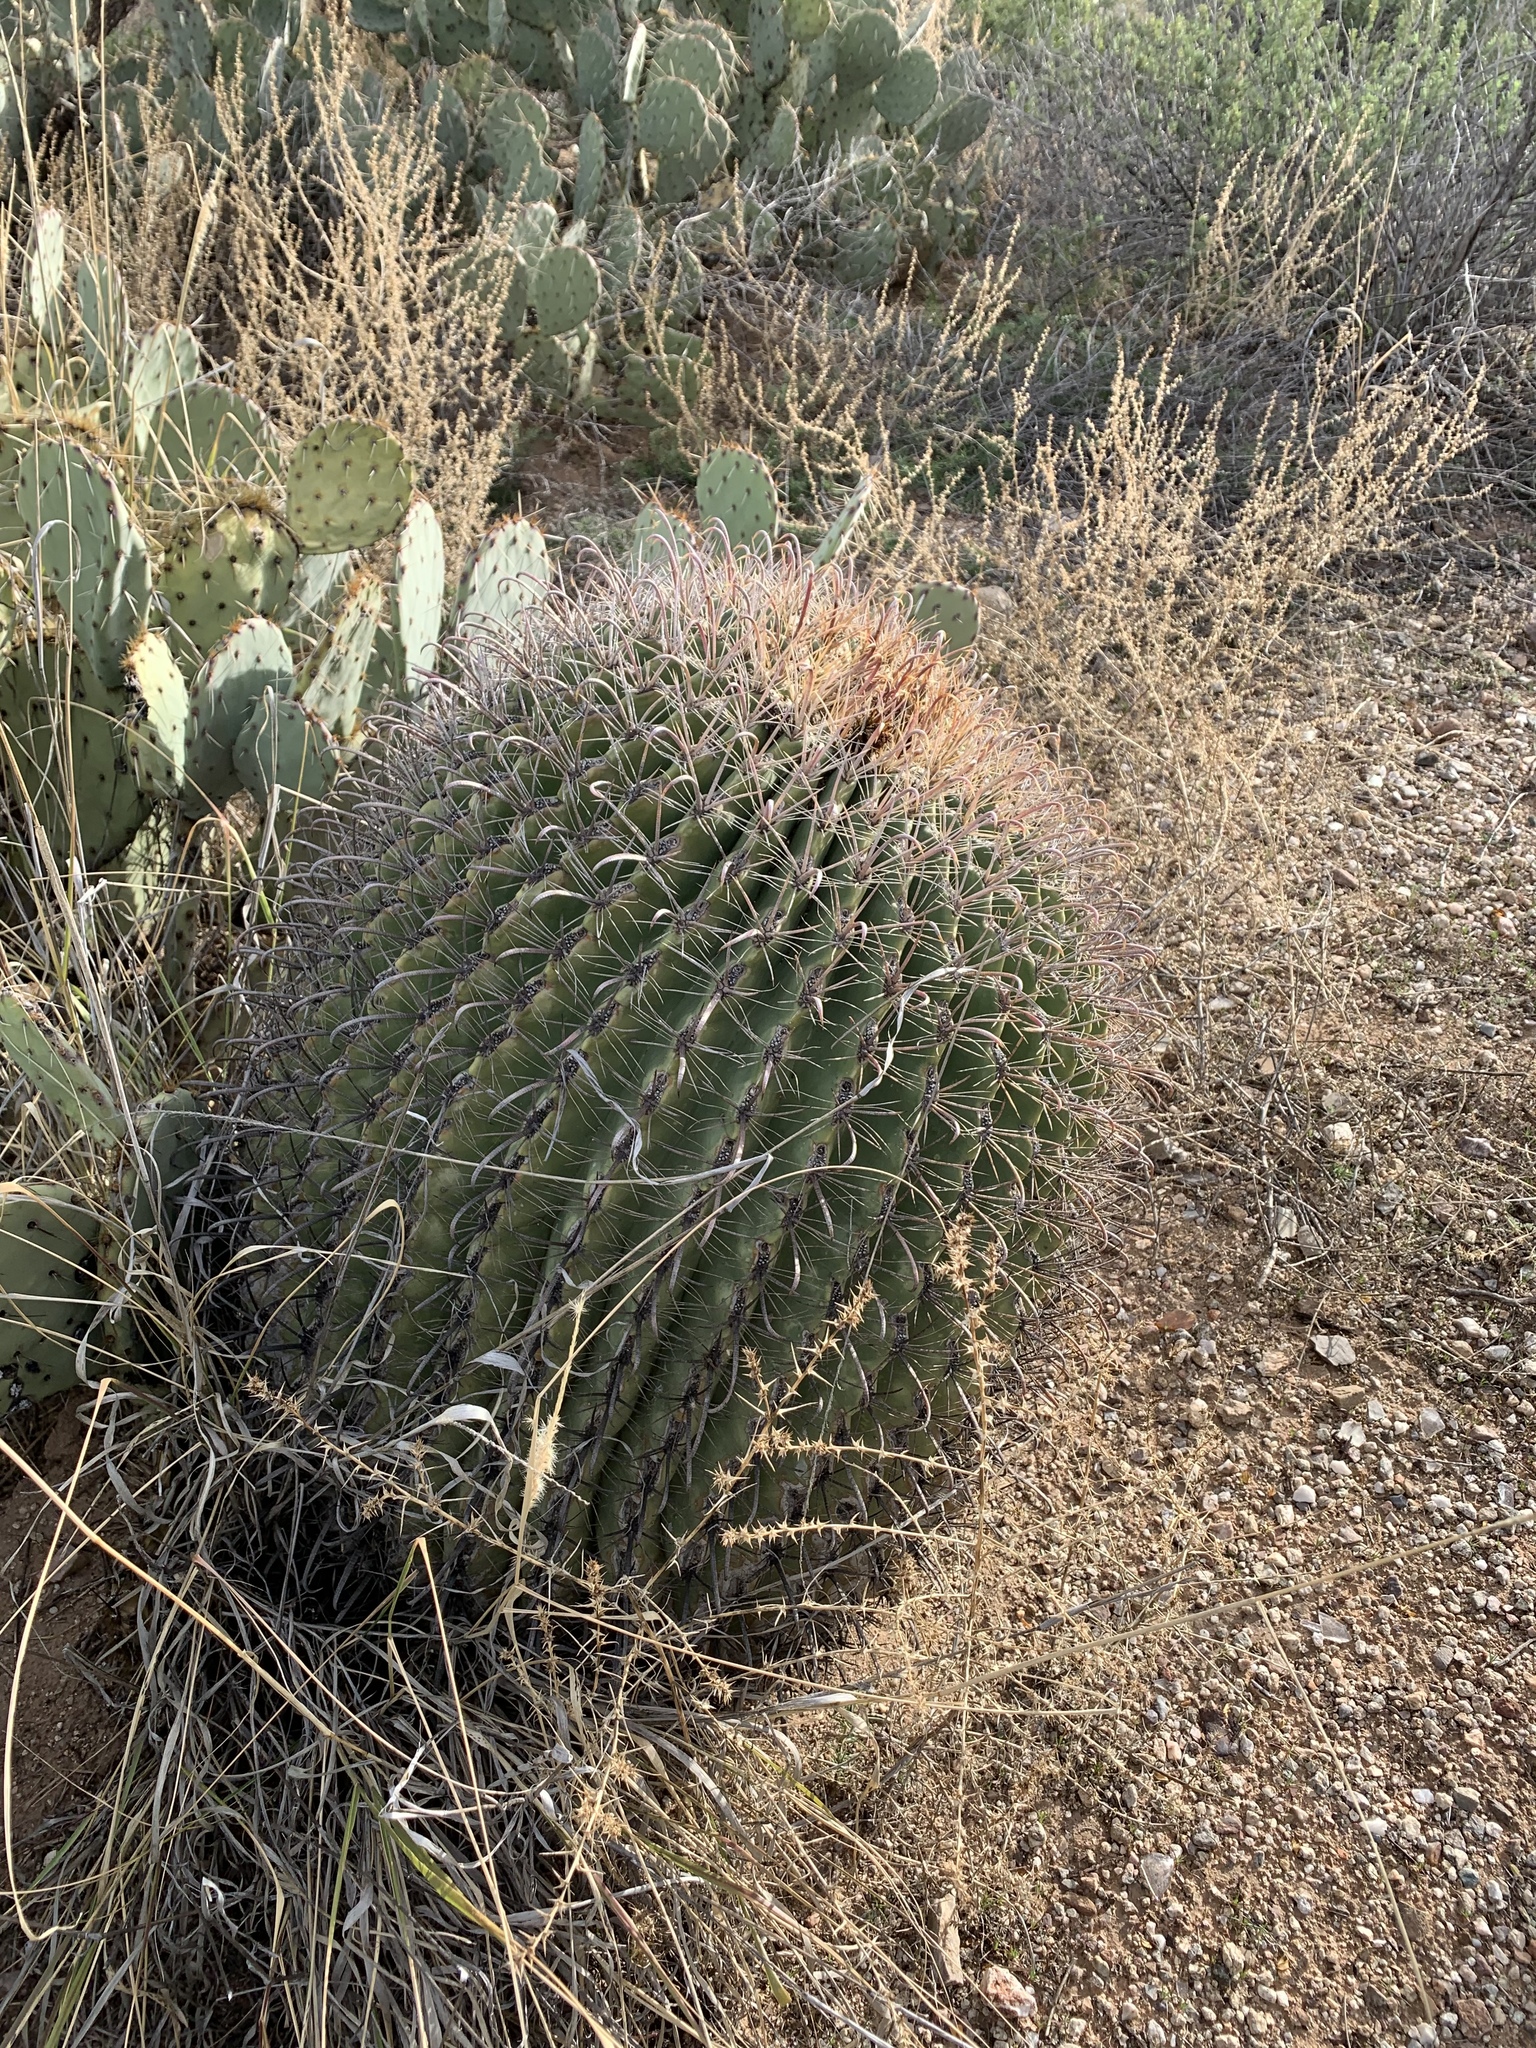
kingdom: Plantae
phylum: Tracheophyta
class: Magnoliopsida
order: Caryophyllales
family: Cactaceae
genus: Ferocactus
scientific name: Ferocactus wislizeni
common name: Candy barrel cactus
